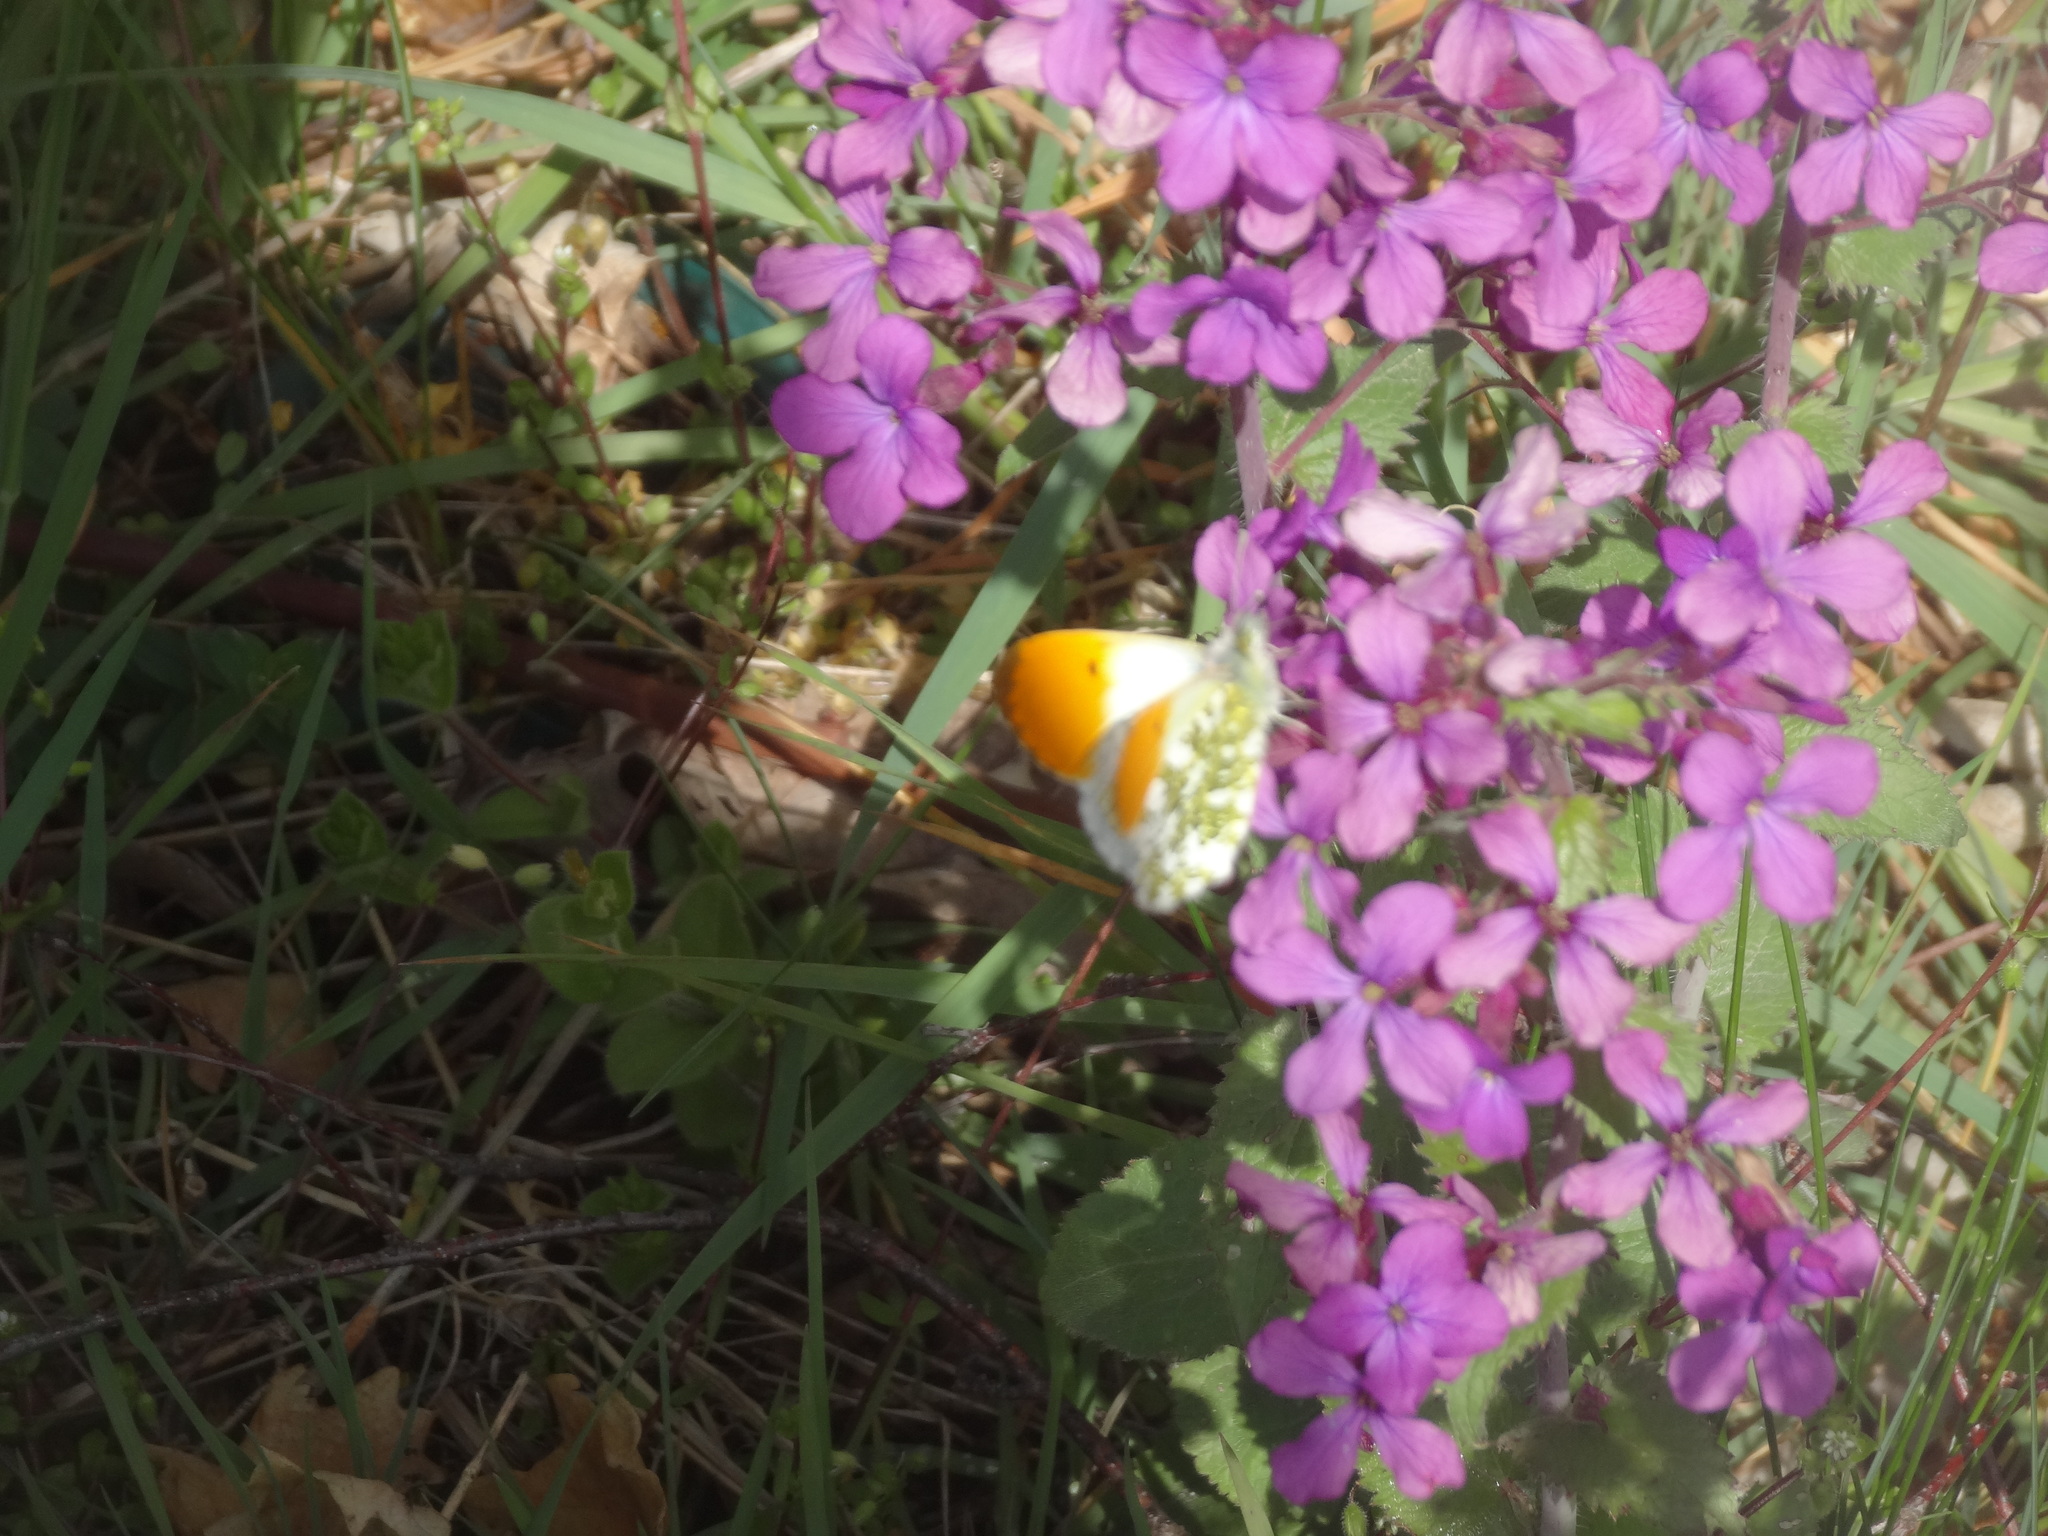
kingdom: Animalia
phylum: Arthropoda
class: Insecta
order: Lepidoptera
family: Pieridae
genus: Anthocharis
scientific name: Anthocharis cardamines
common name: Orange-tip
